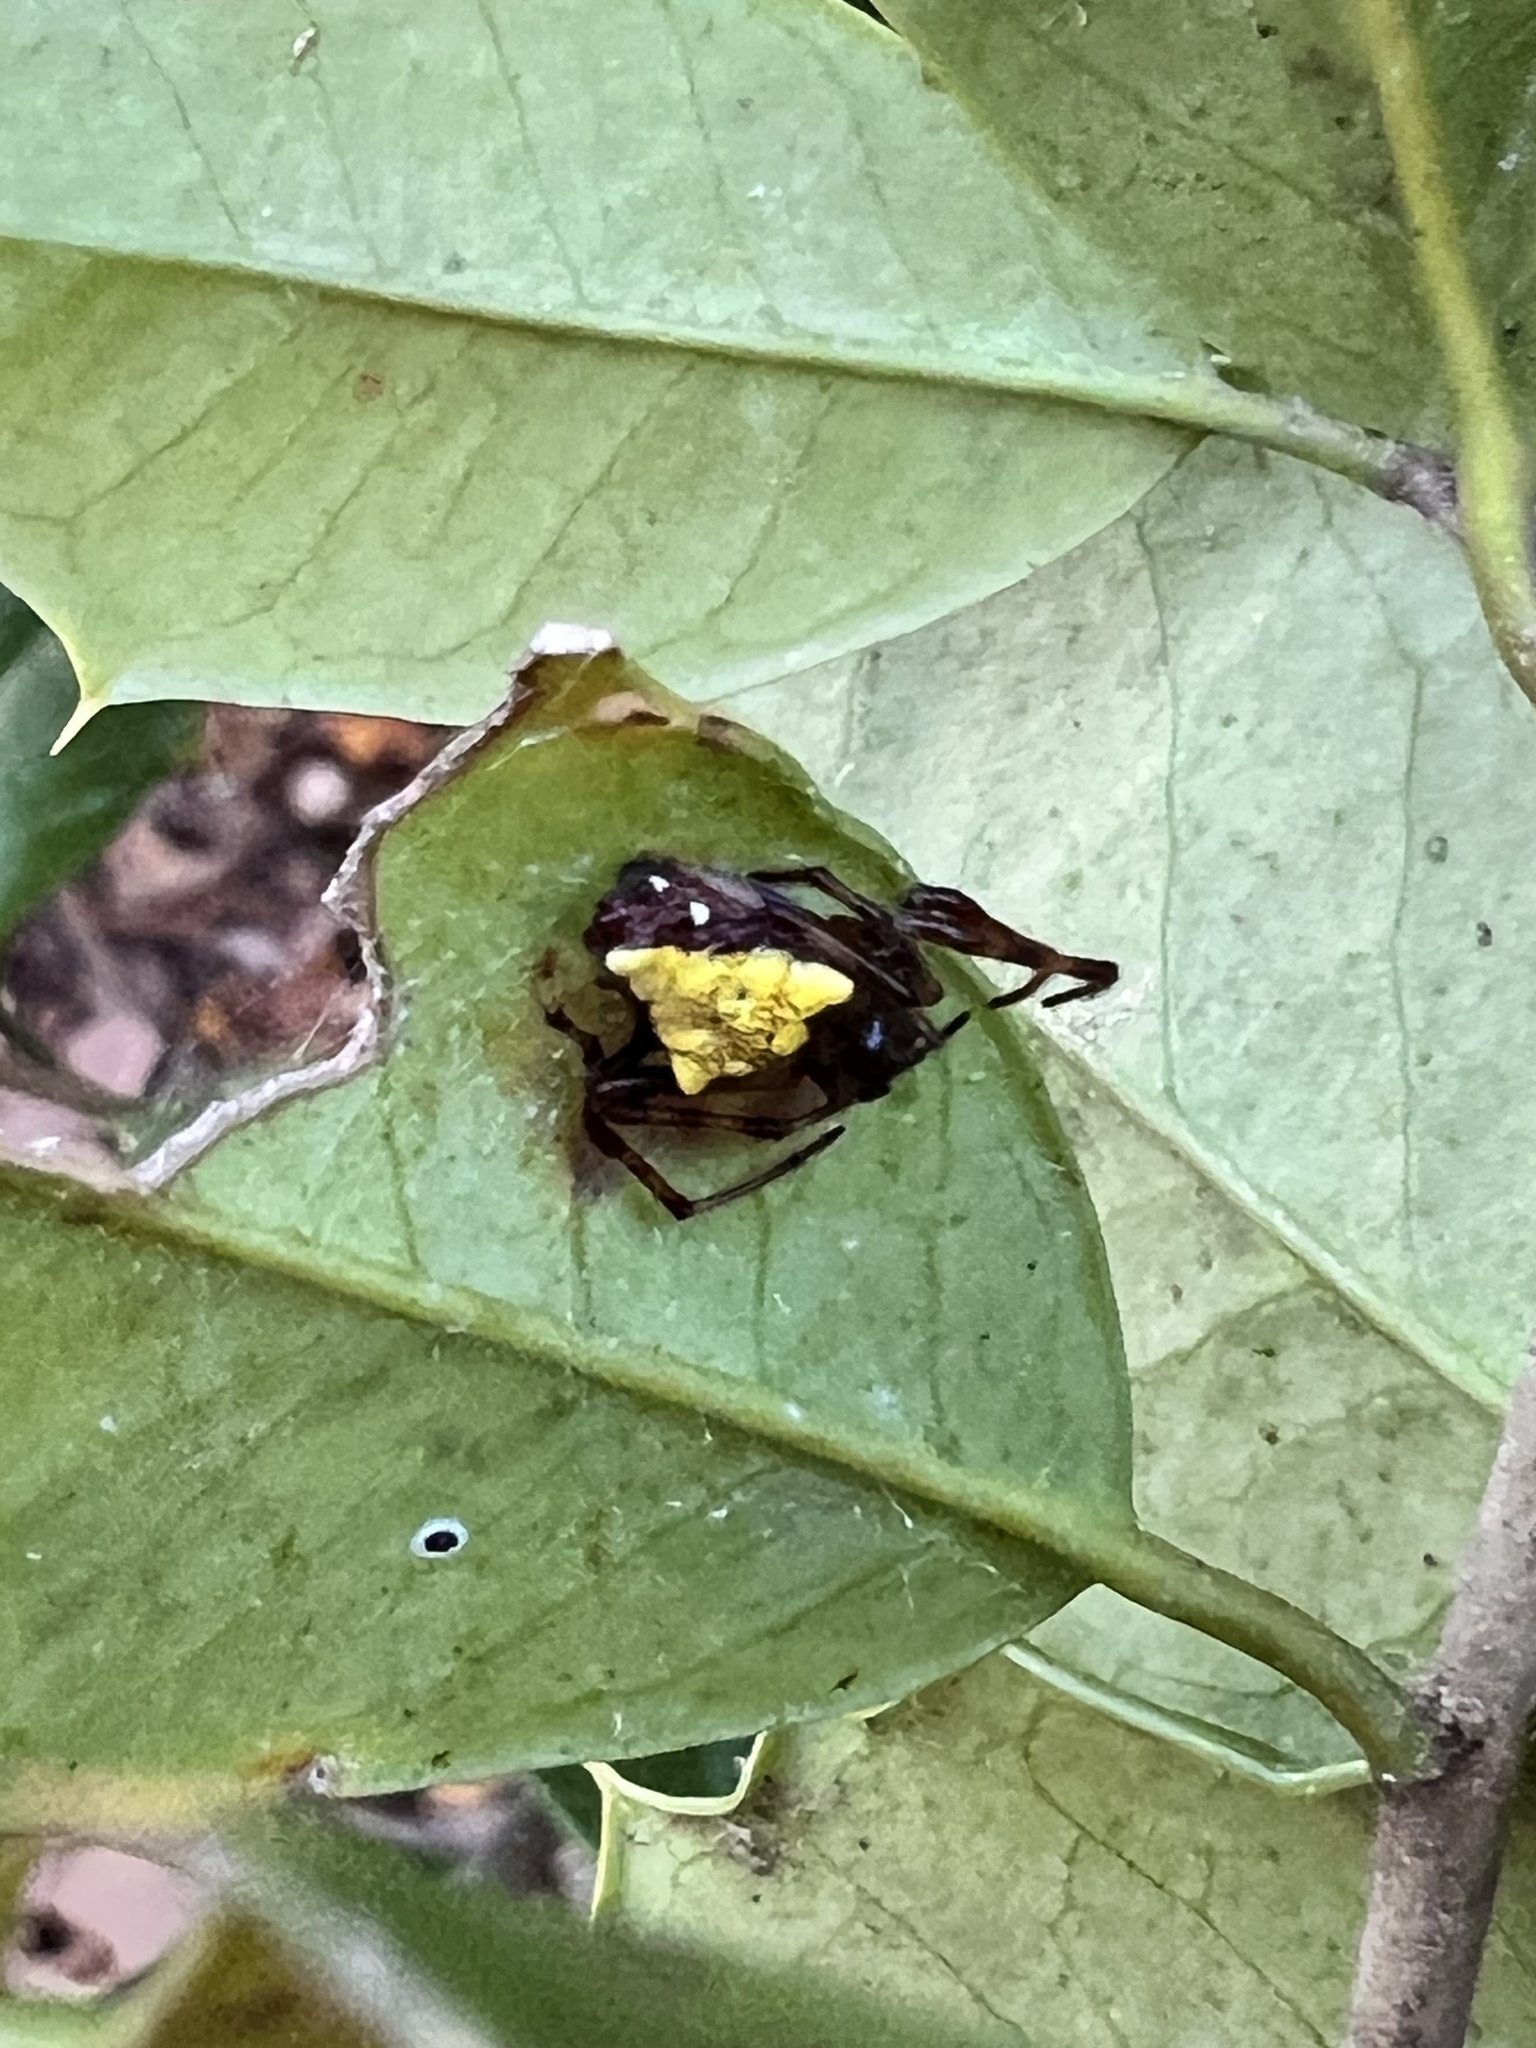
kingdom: Animalia
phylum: Arthropoda
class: Arachnida
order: Araneae
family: Araneidae
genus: Verrucosa
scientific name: Verrucosa arenata
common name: Orb weavers
